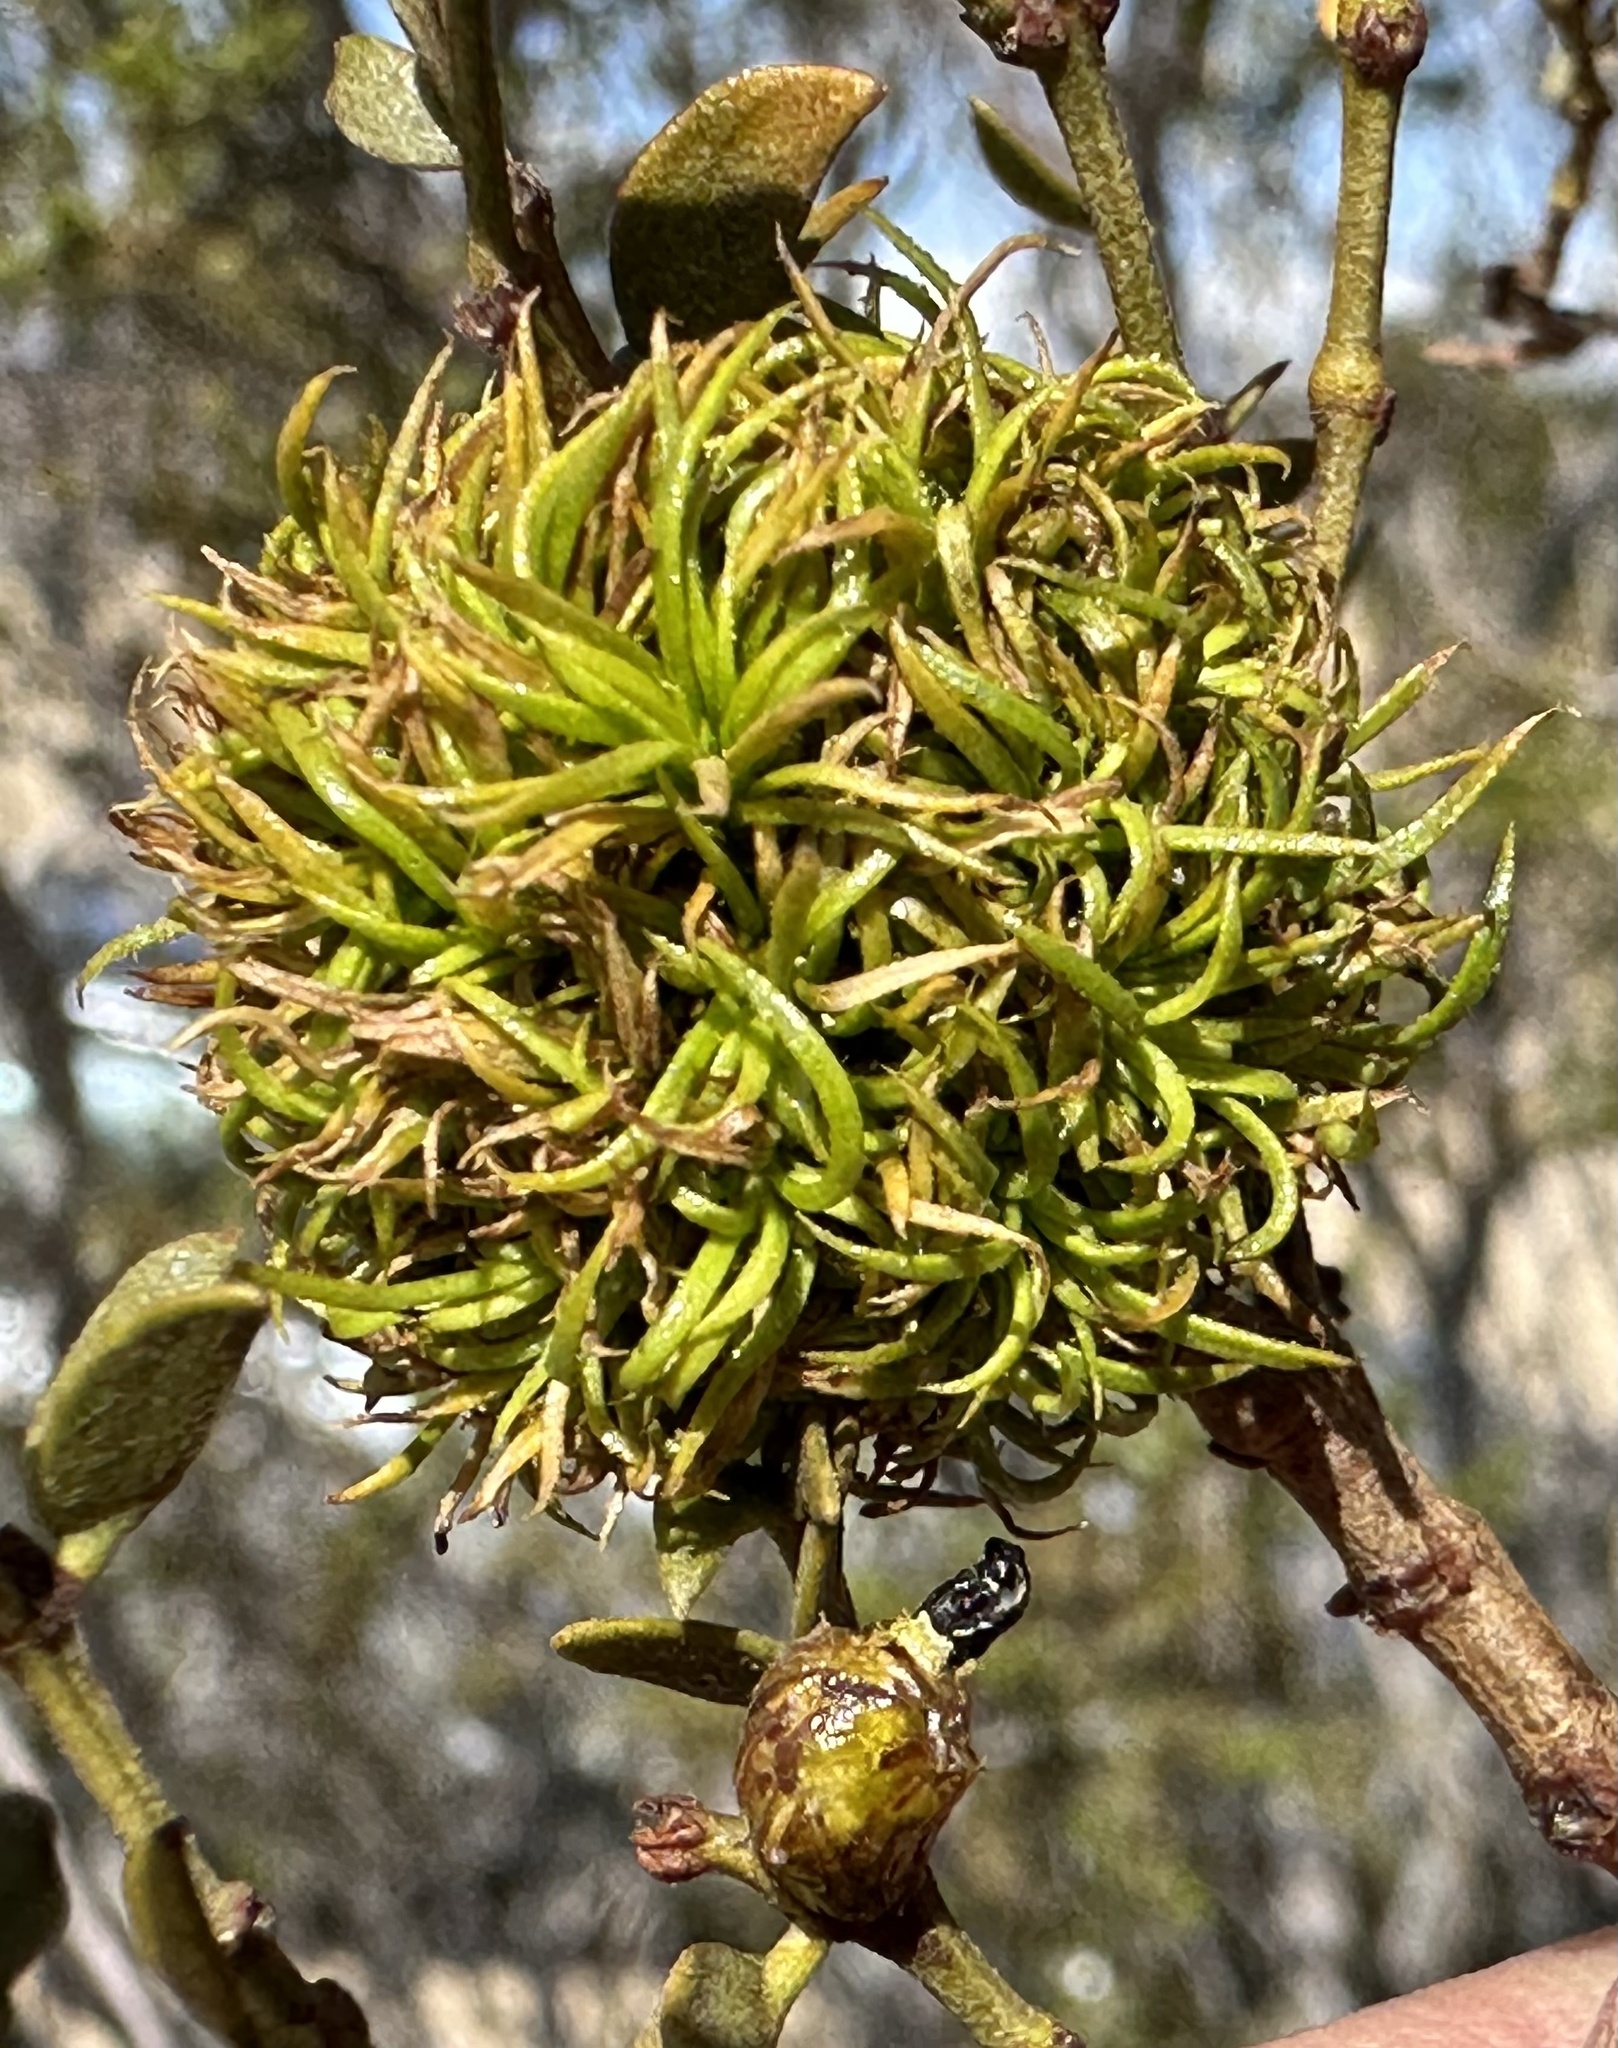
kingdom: Animalia
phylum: Arthropoda
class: Insecta
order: Diptera
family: Cecidomyiidae
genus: Asphondylia
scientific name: Asphondylia auripila
